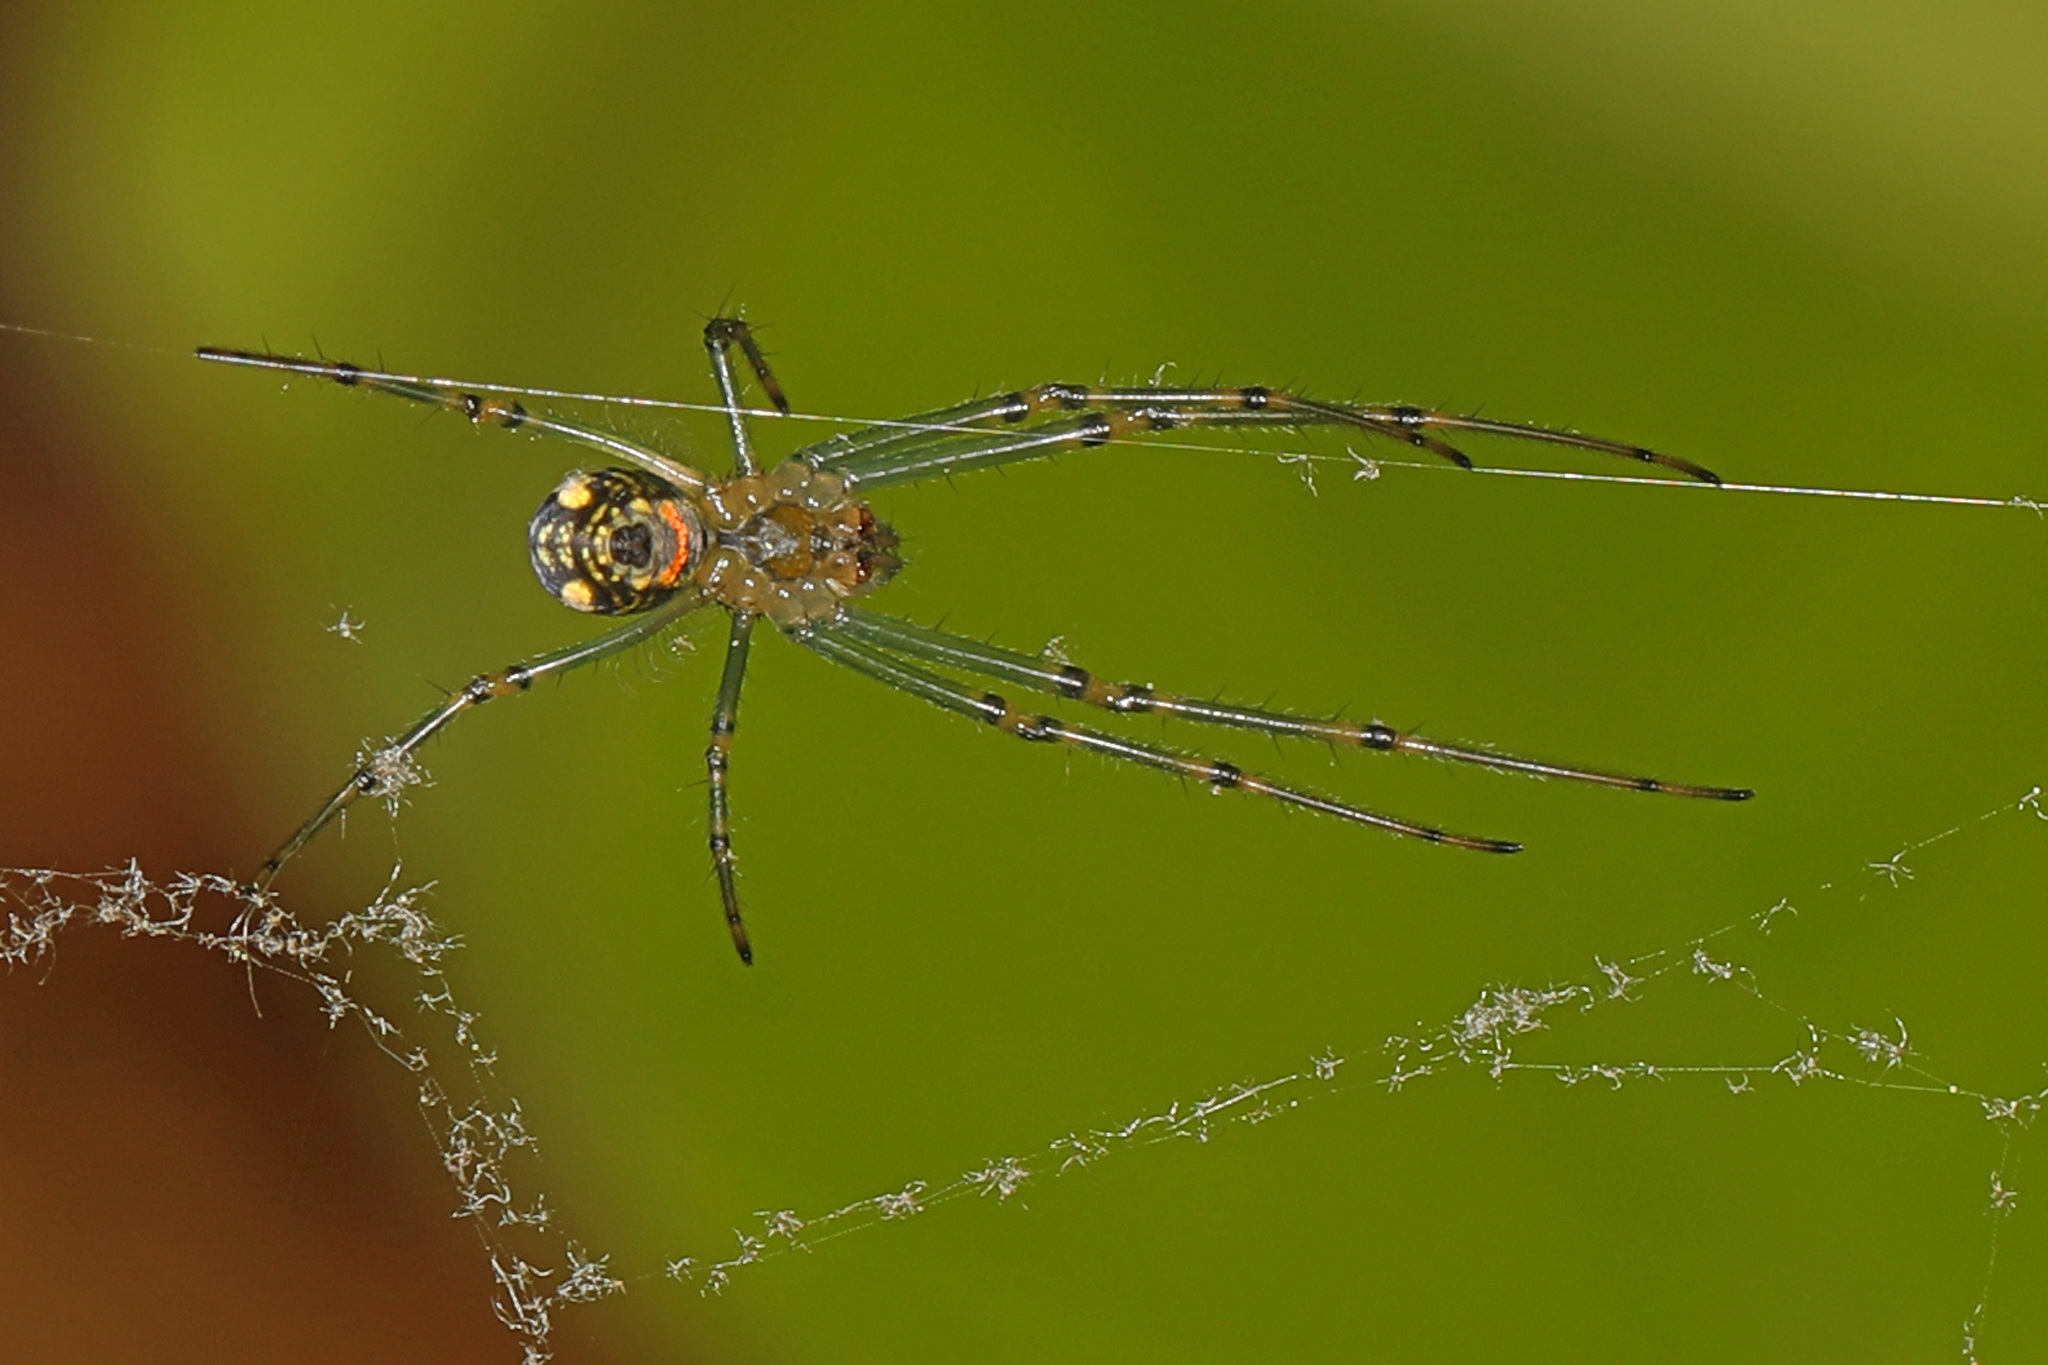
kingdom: Animalia
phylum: Arthropoda
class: Arachnida
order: Araneae
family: Tetragnathidae
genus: Leucauge
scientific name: Leucauge venusta
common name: Longjawed orb weavers
